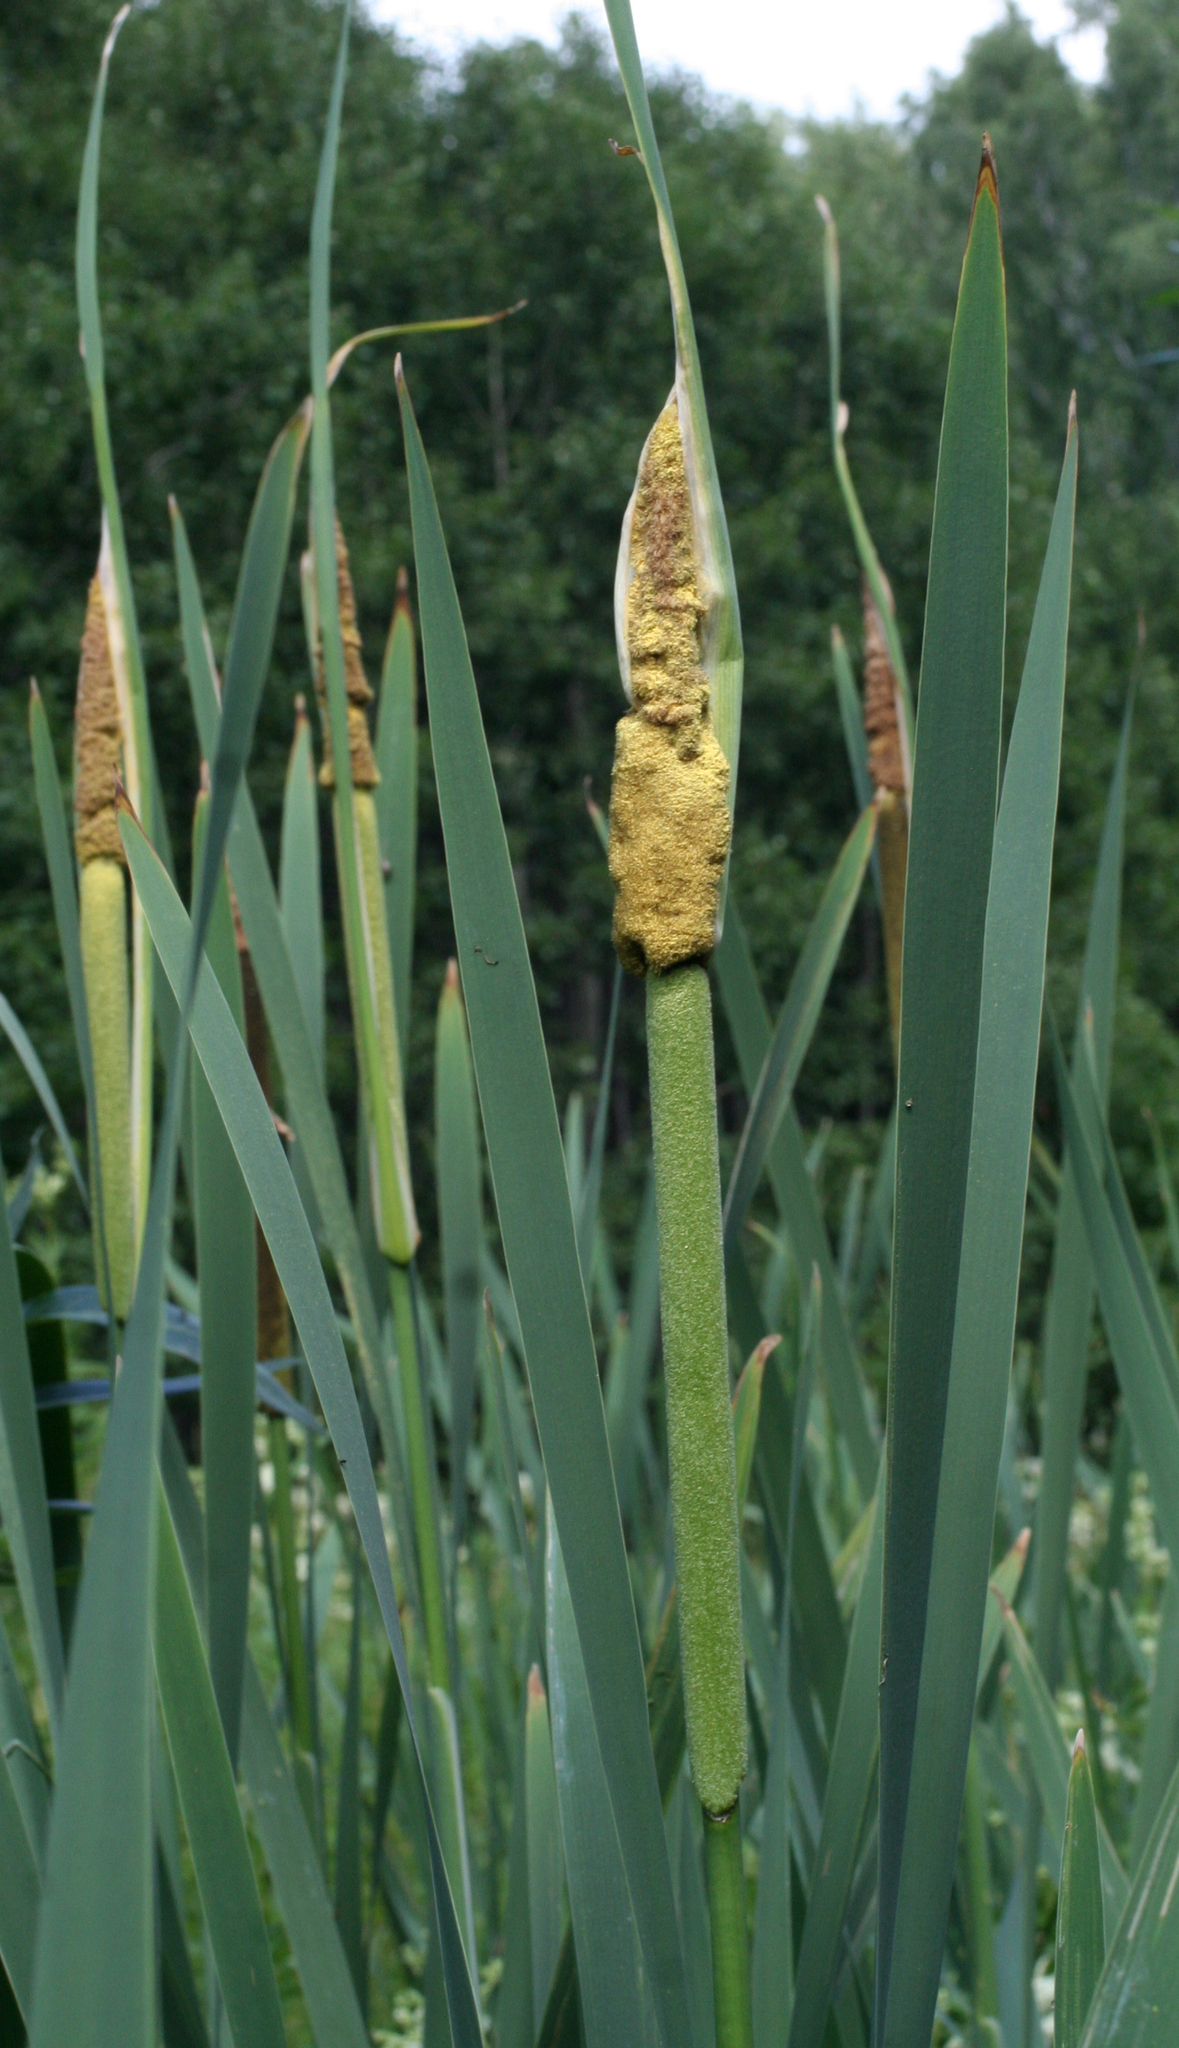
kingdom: Plantae
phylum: Tracheophyta
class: Liliopsida
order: Poales
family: Typhaceae
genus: Typha
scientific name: Typha latifolia
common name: Broadleaf cattail
